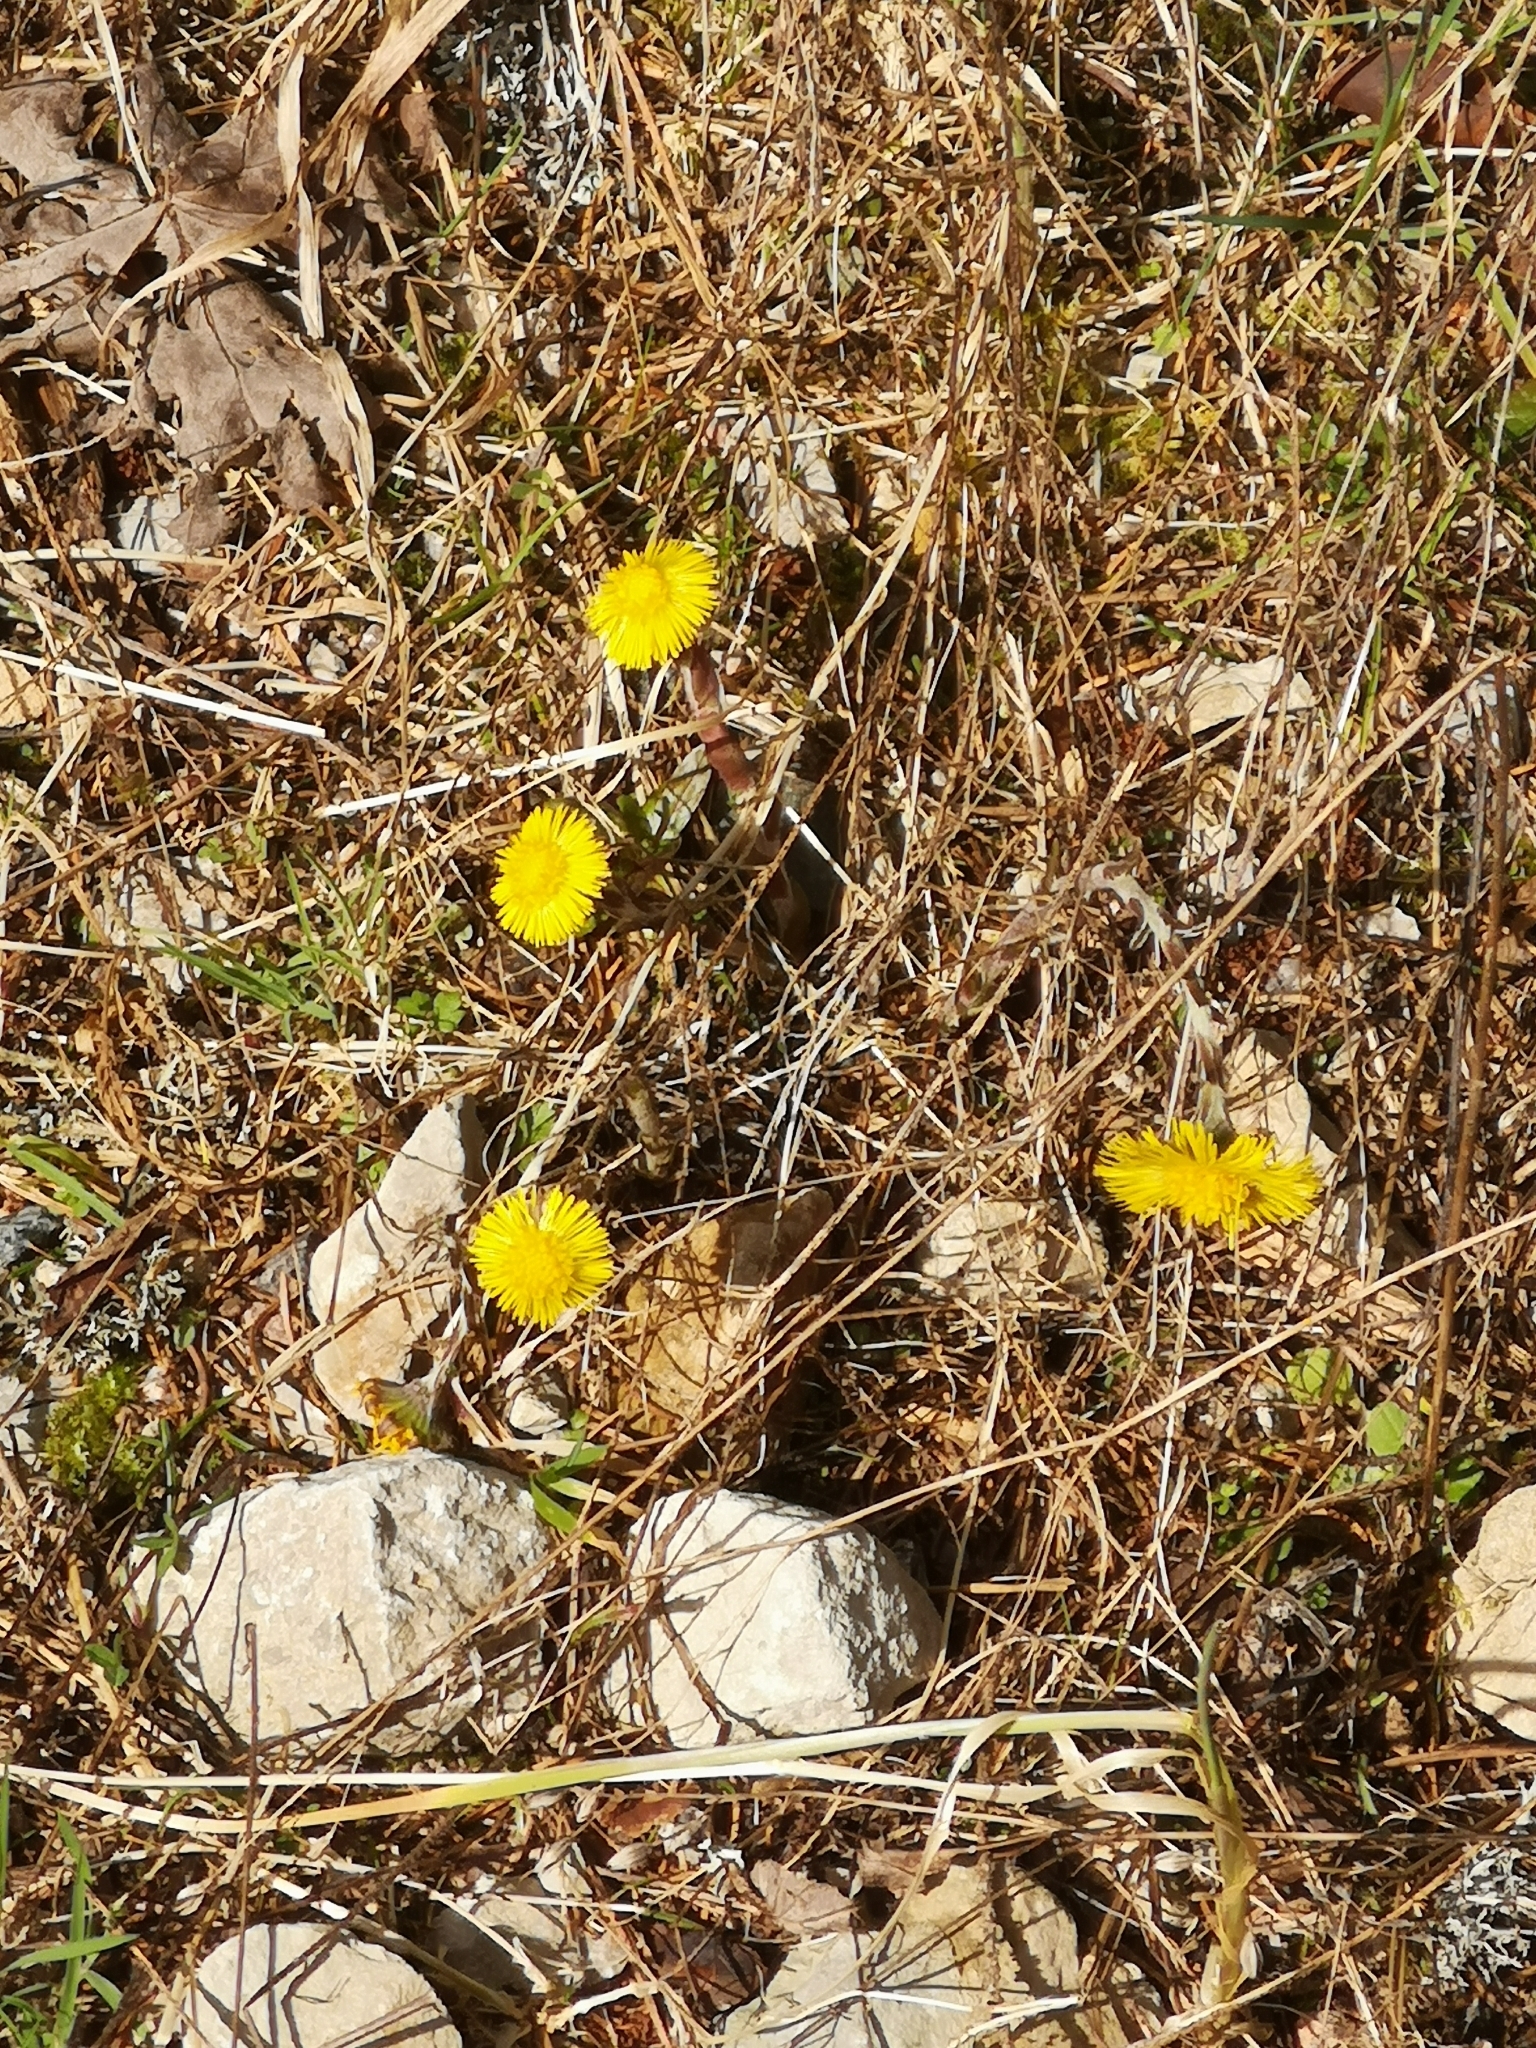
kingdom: Plantae
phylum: Tracheophyta
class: Magnoliopsida
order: Asterales
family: Asteraceae
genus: Tussilago
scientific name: Tussilago farfara
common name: Coltsfoot
